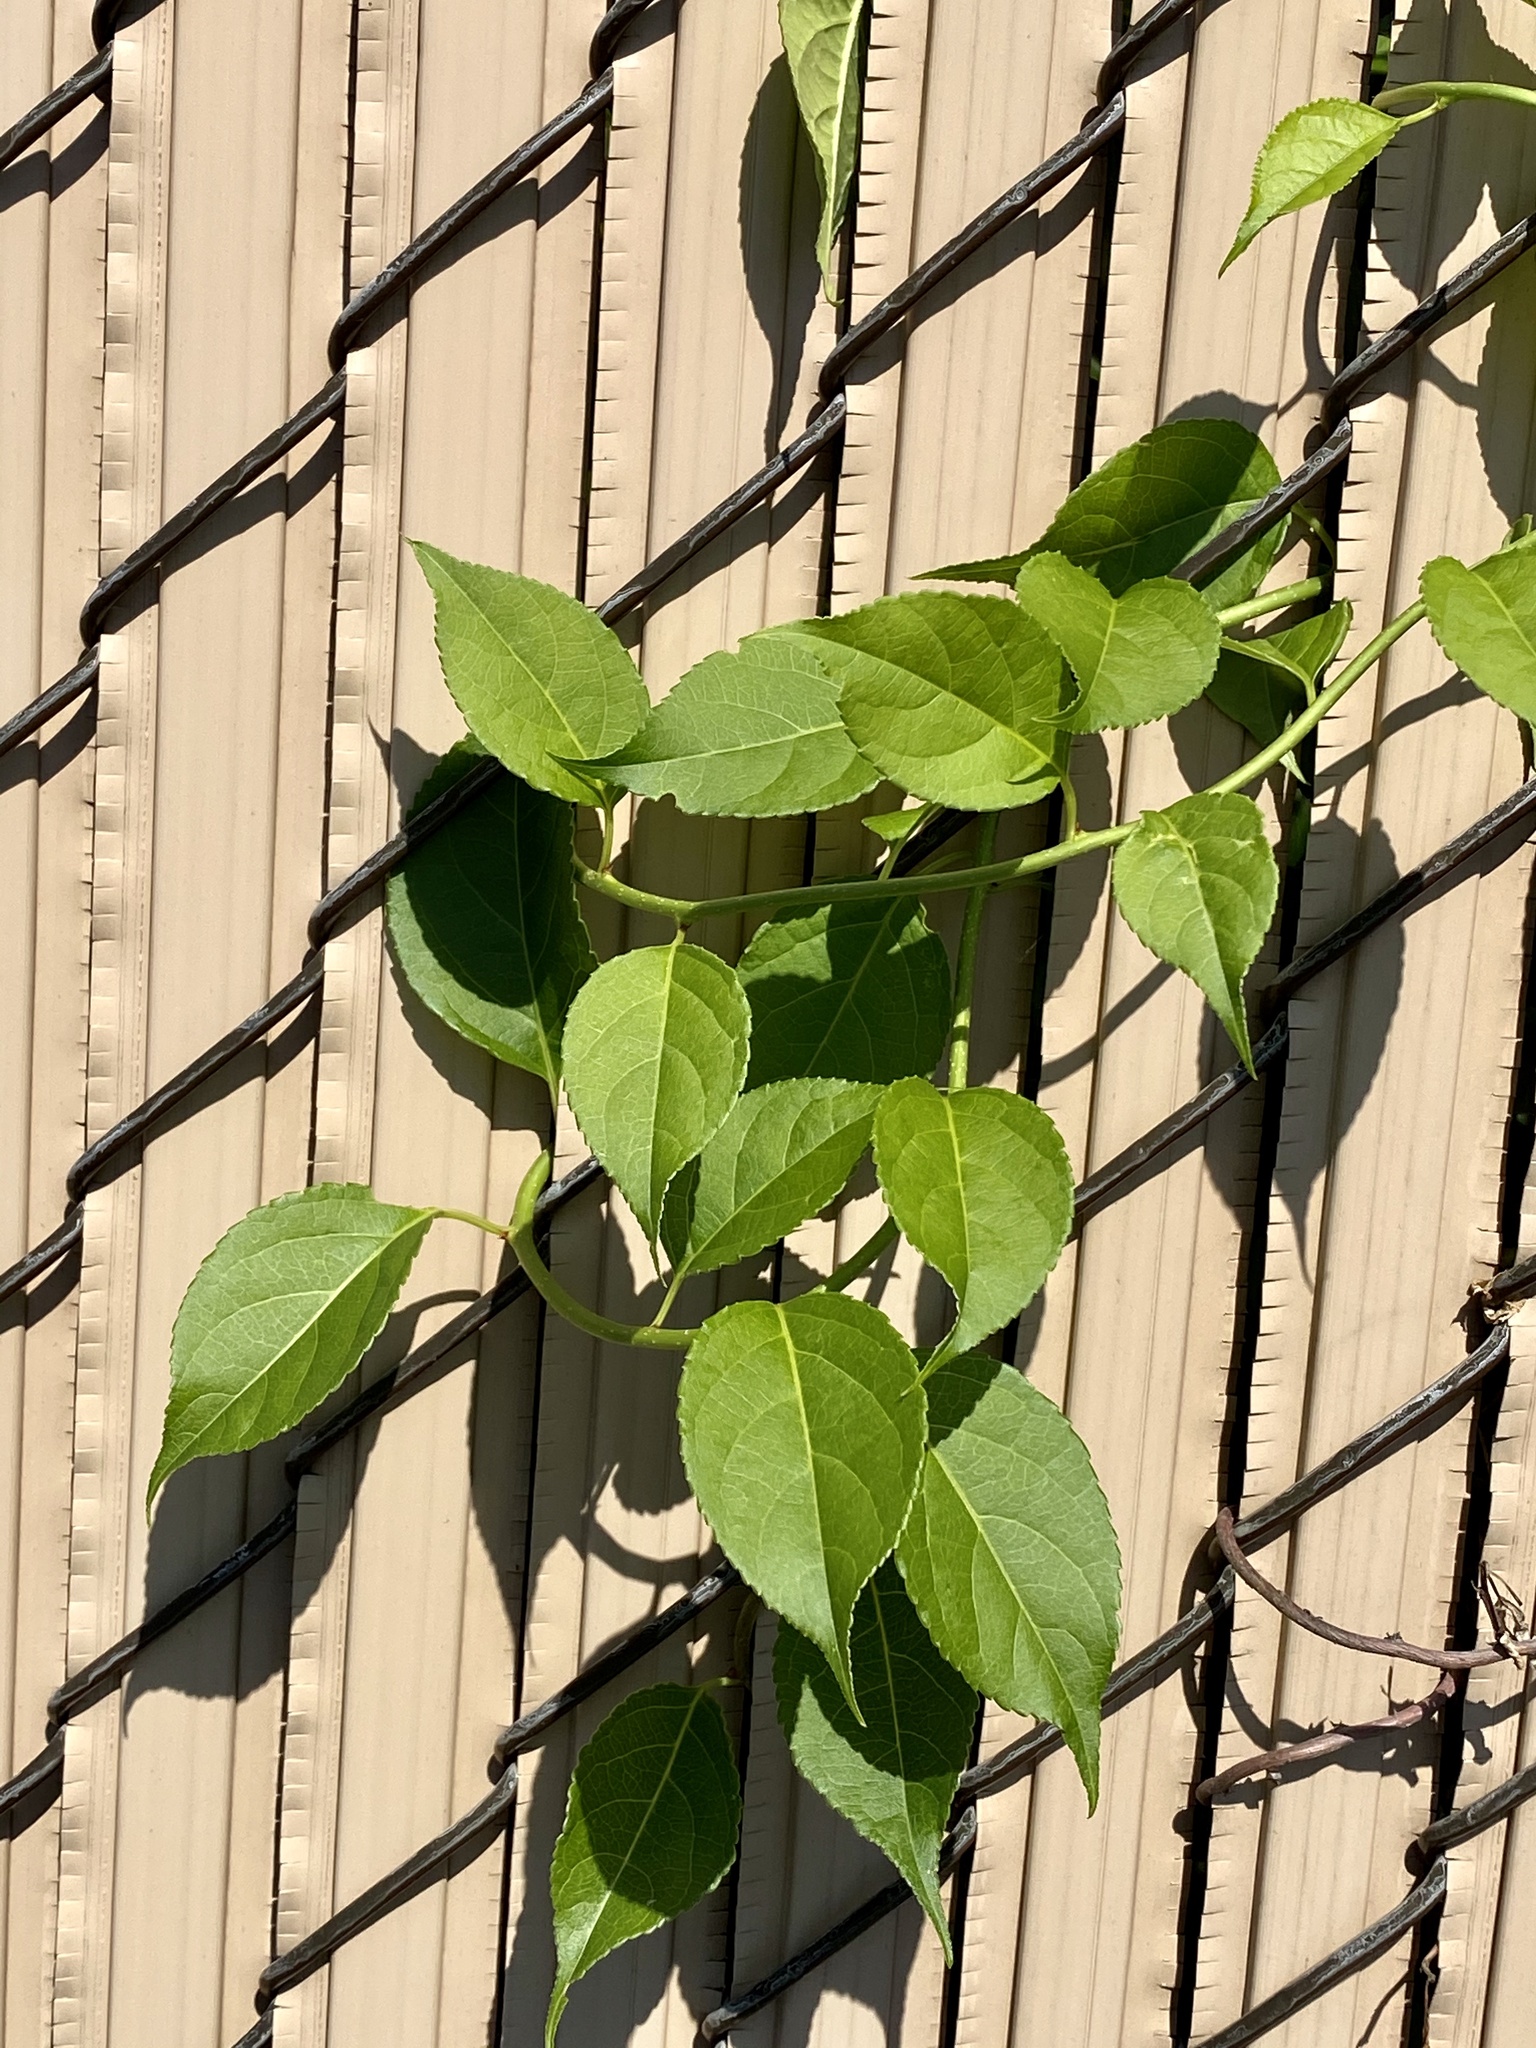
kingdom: Plantae
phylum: Tracheophyta
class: Magnoliopsida
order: Celastrales
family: Celastraceae
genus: Celastrus
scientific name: Celastrus orbiculatus
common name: Oriental bittersweet
